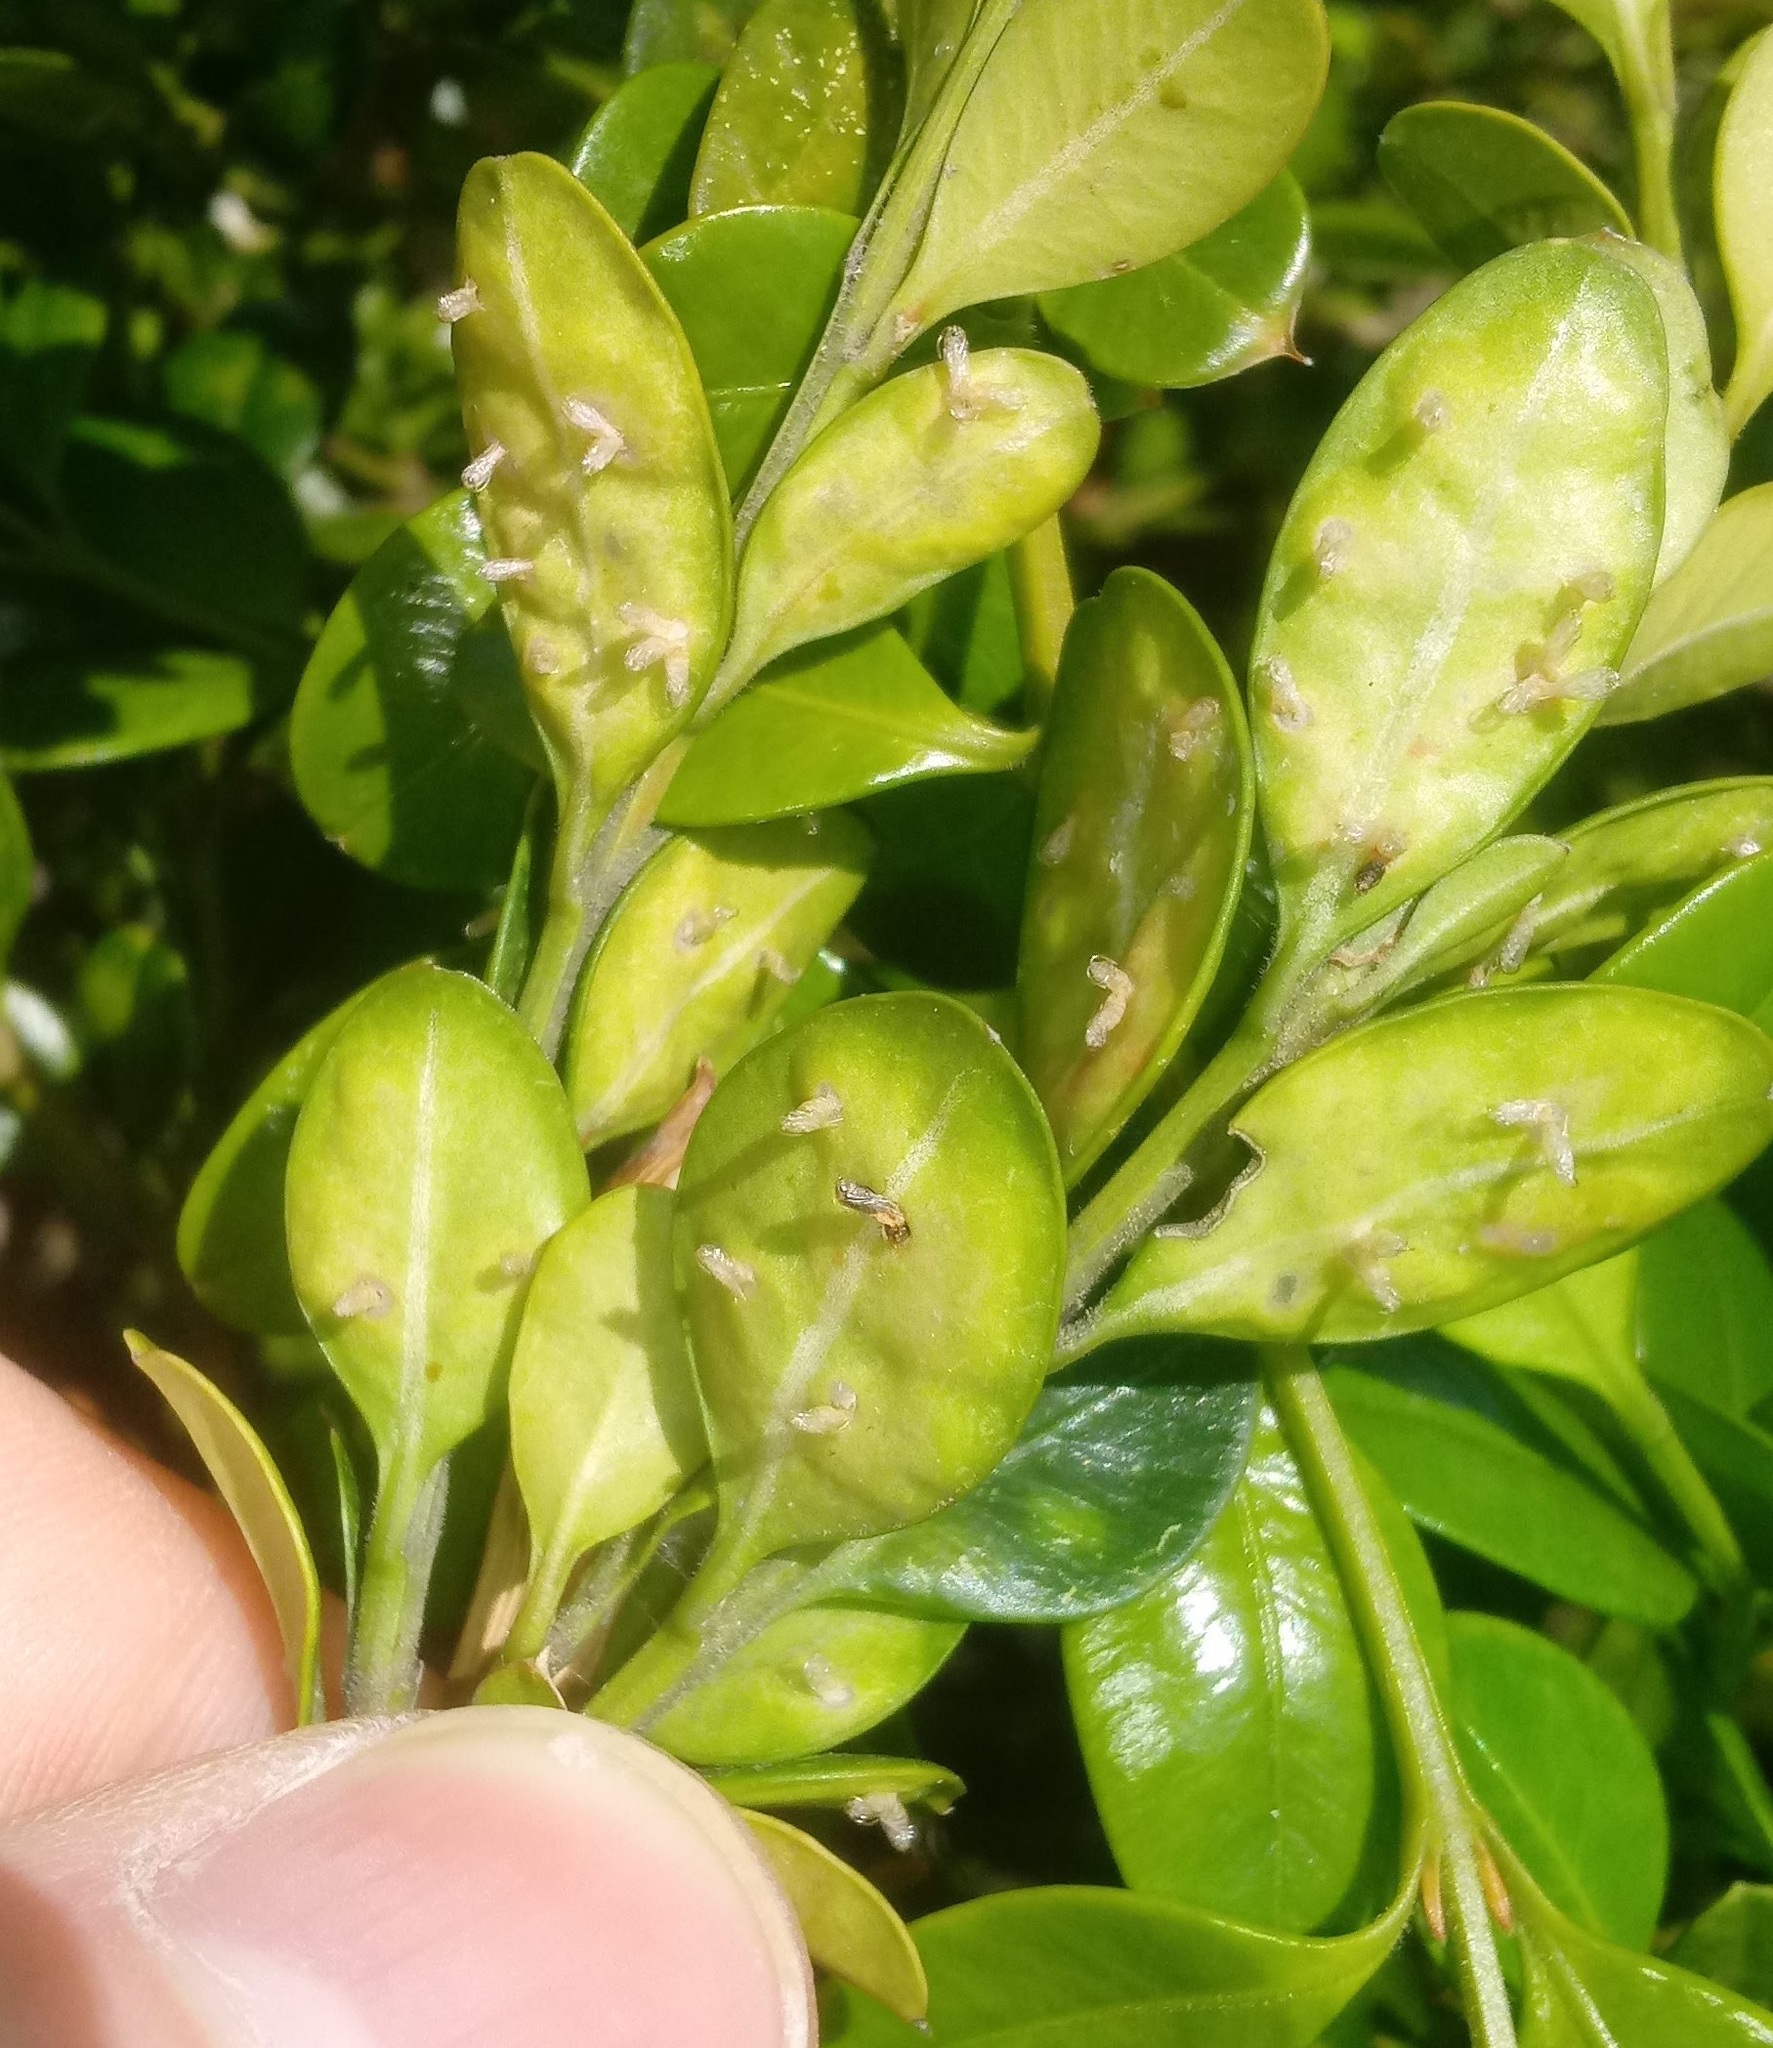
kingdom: Animalia
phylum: Arthropoda
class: Insecta
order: Diptera
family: Cecidomyiidae
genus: Monarthropalpus
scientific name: Monarthropalpus flavus
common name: Boxwood leafminer
